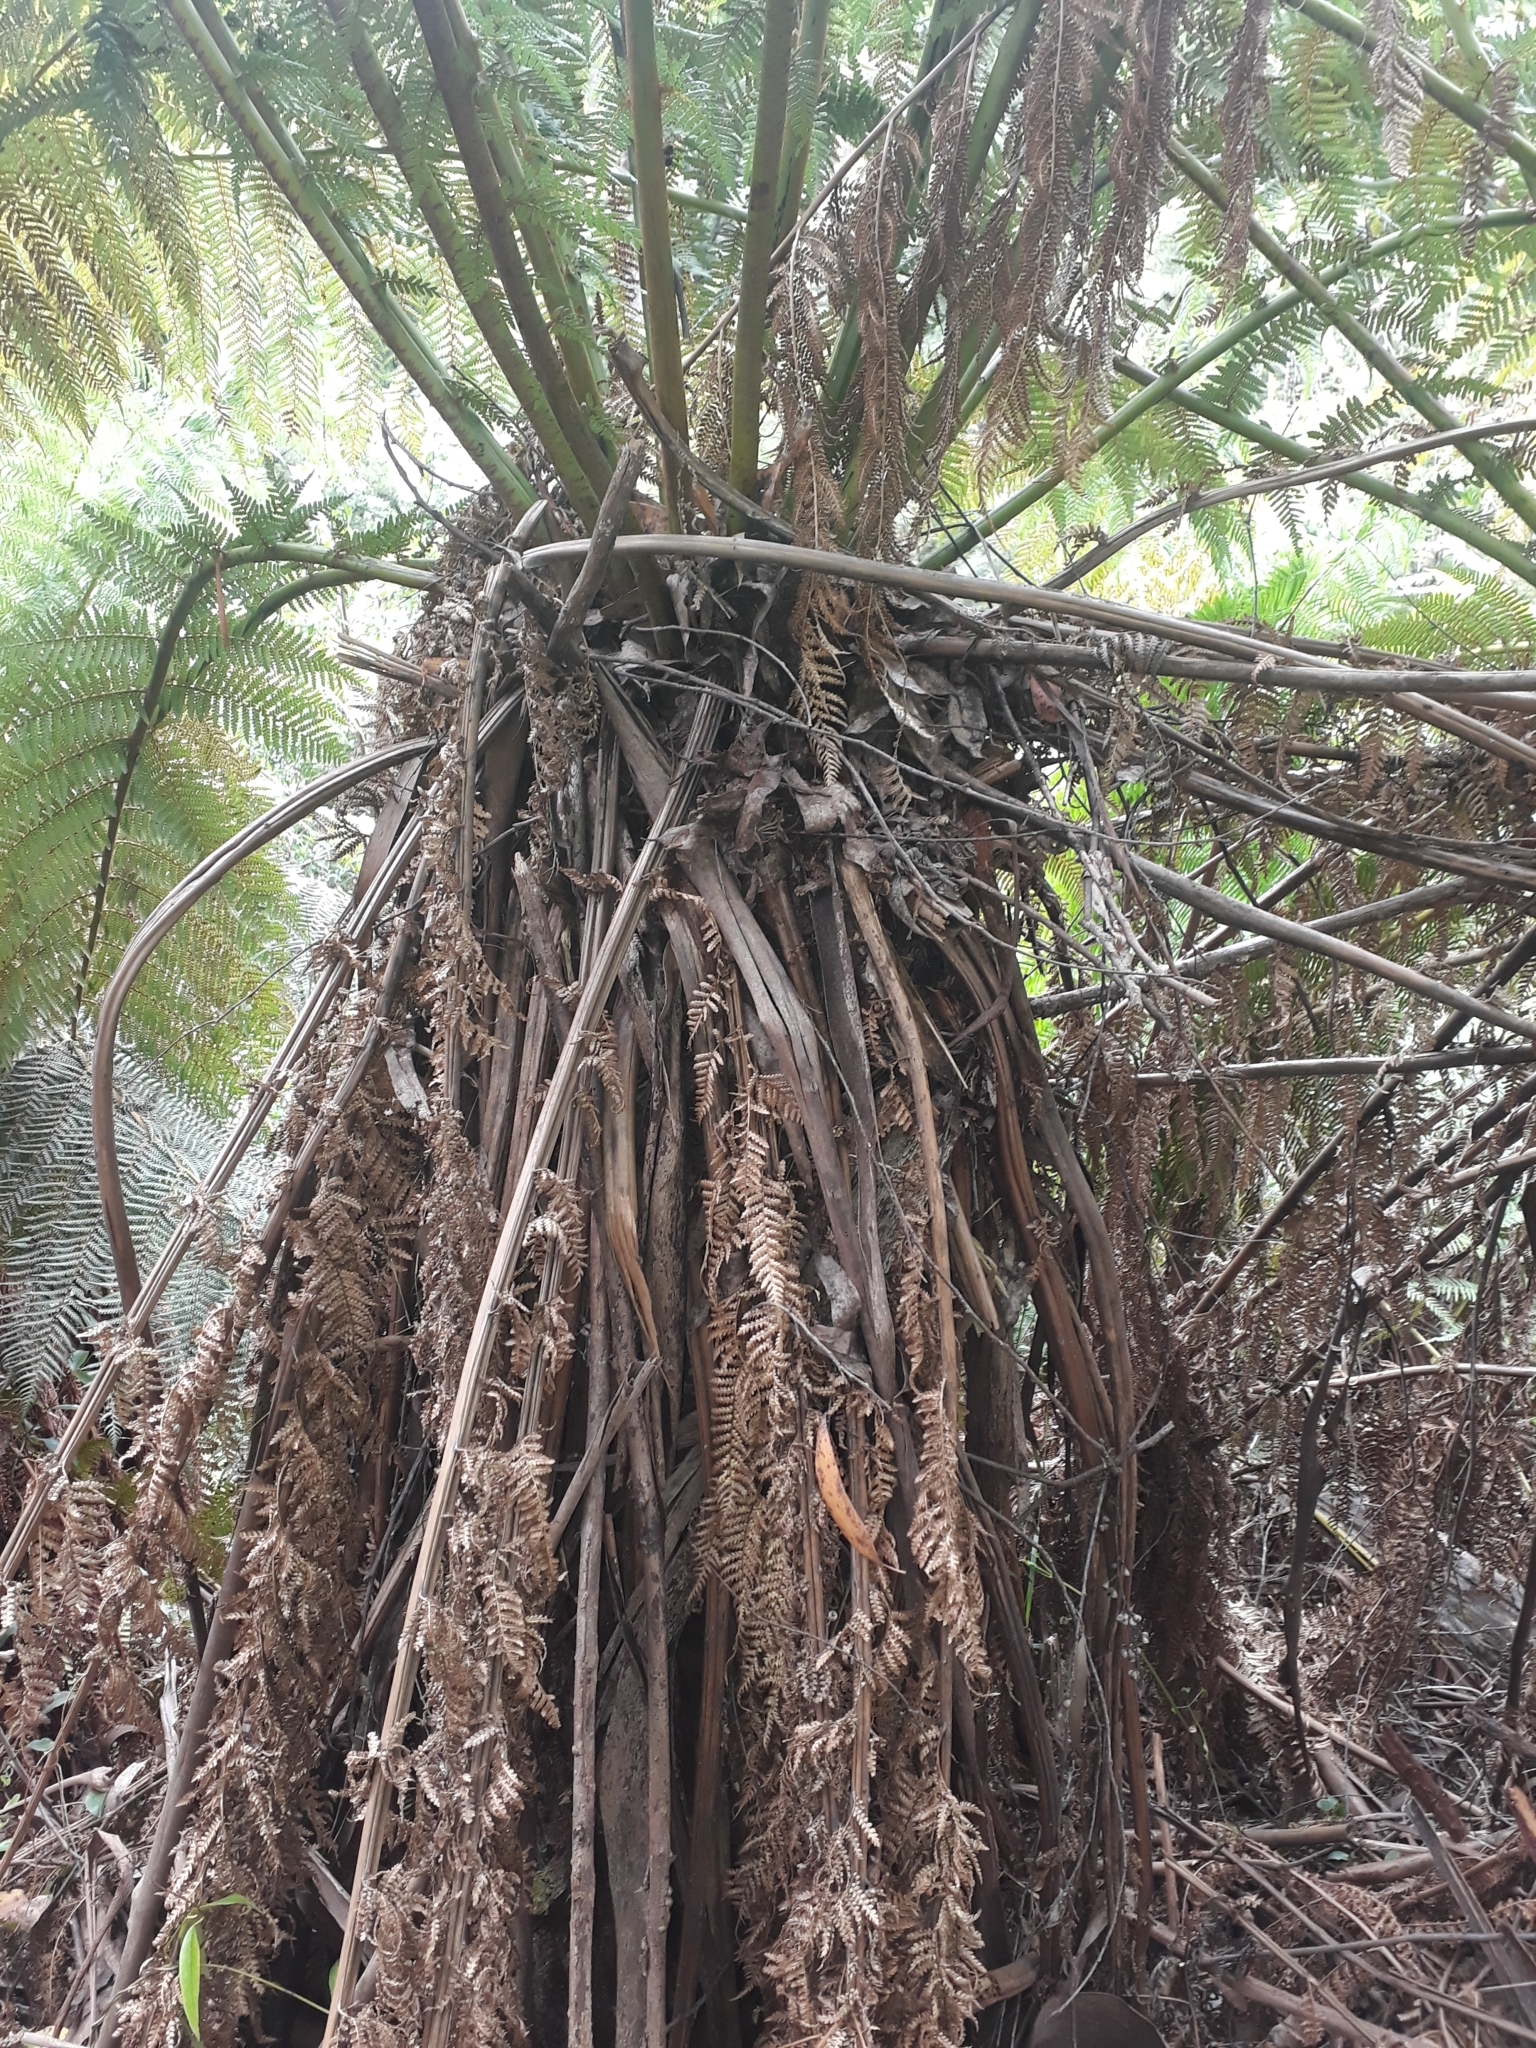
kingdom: Plantae
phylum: Tracheophyta
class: Polypodiopsida
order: Cyatheales
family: Dicksoniaceae
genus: Dicksonia
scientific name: Dicksonia antarctica
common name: Australian treefern
